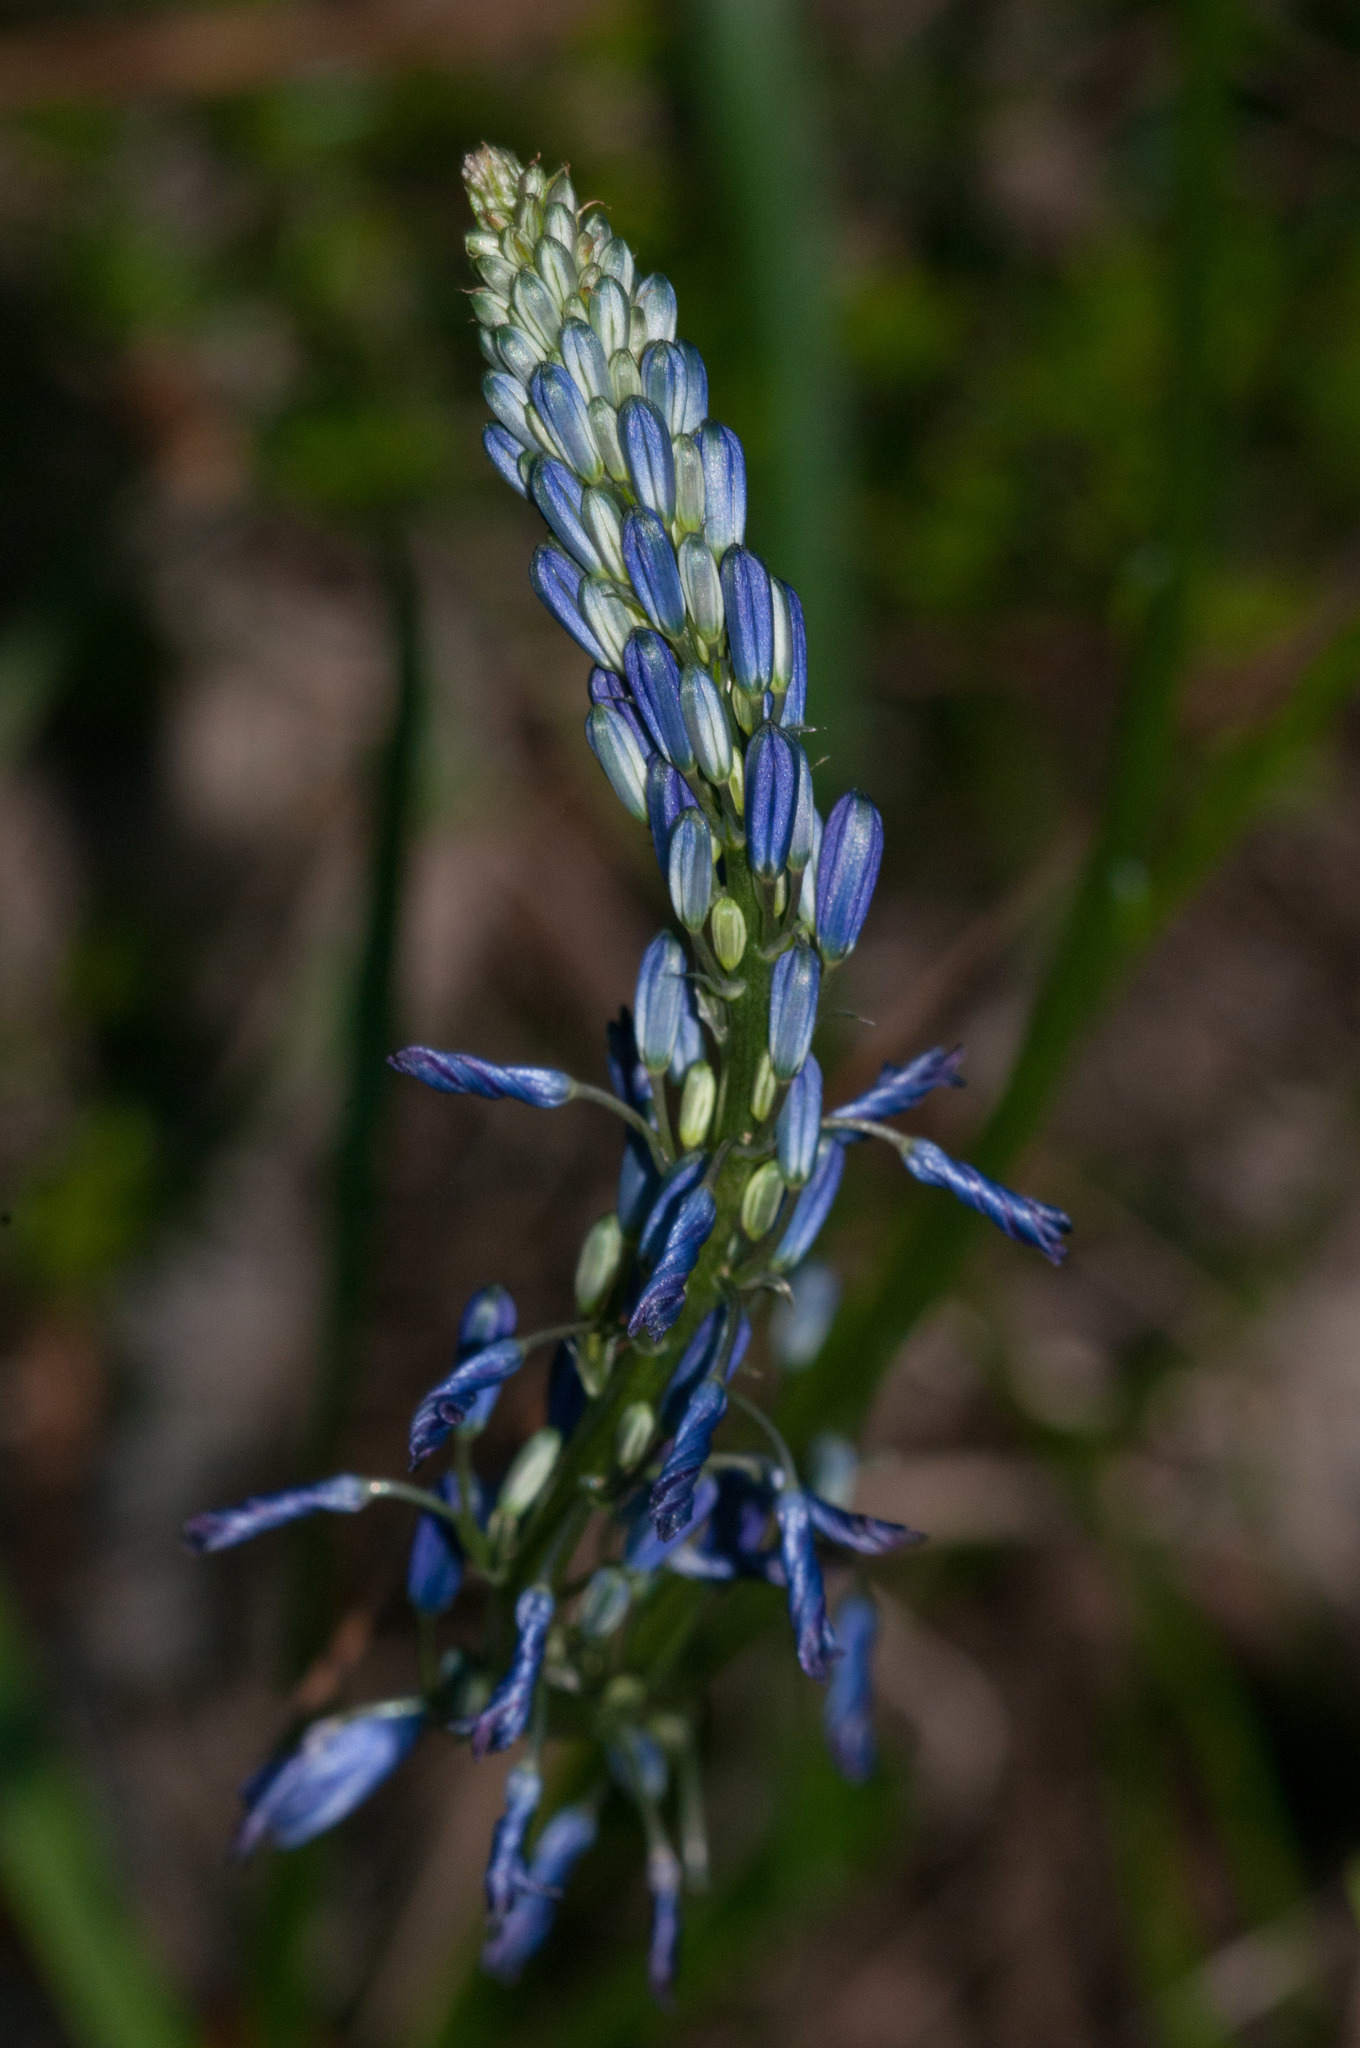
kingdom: Plantae
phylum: Tracheophyta
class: Liliopsida
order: Asparagales
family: Asphodelaceae
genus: Caesia
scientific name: Caesia calliantha
